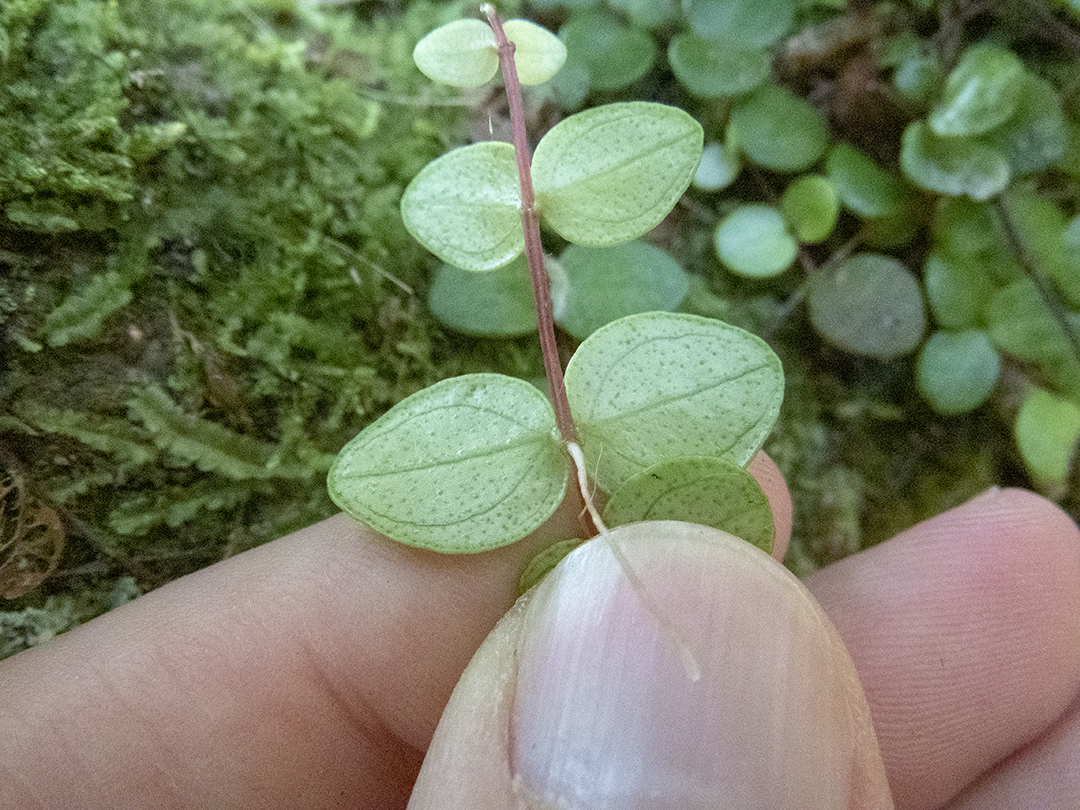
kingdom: Plantae
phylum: Tracheophyta
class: Magnoliopsida
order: Myrtales
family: Myrtaceae
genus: Metrosideros
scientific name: Metrosideros perforata
